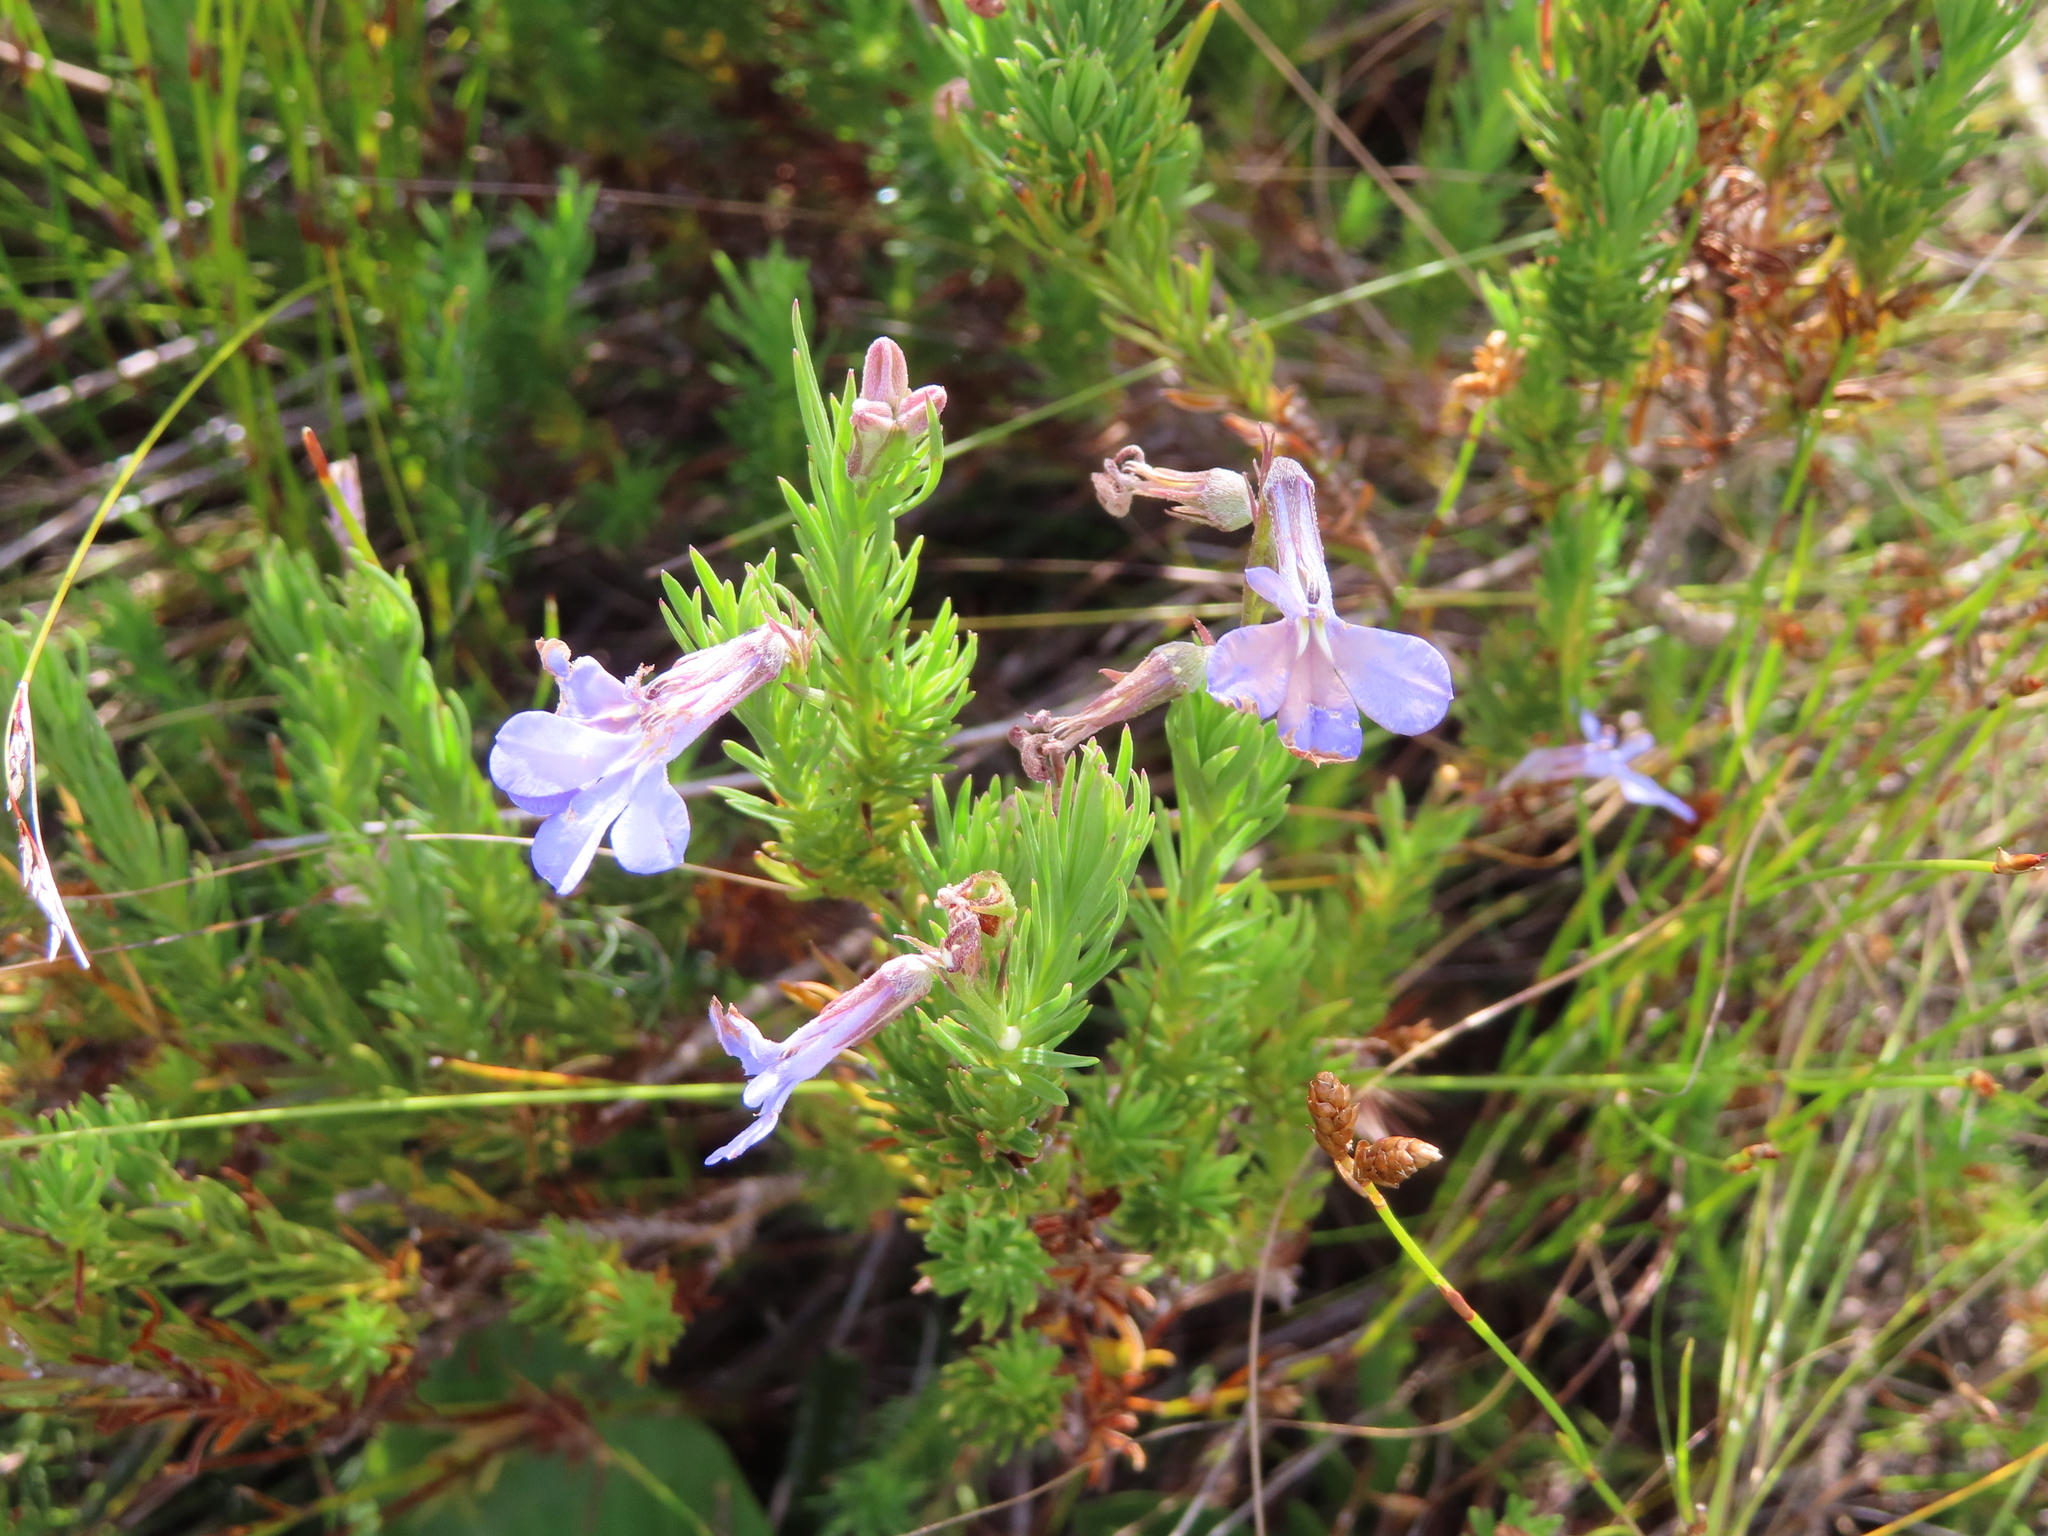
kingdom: Plantae
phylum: Tracheophyta
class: Magnoliopsida
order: Asterales
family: Campanulaceae
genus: Lobelia
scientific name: Lobelia pinifolia
